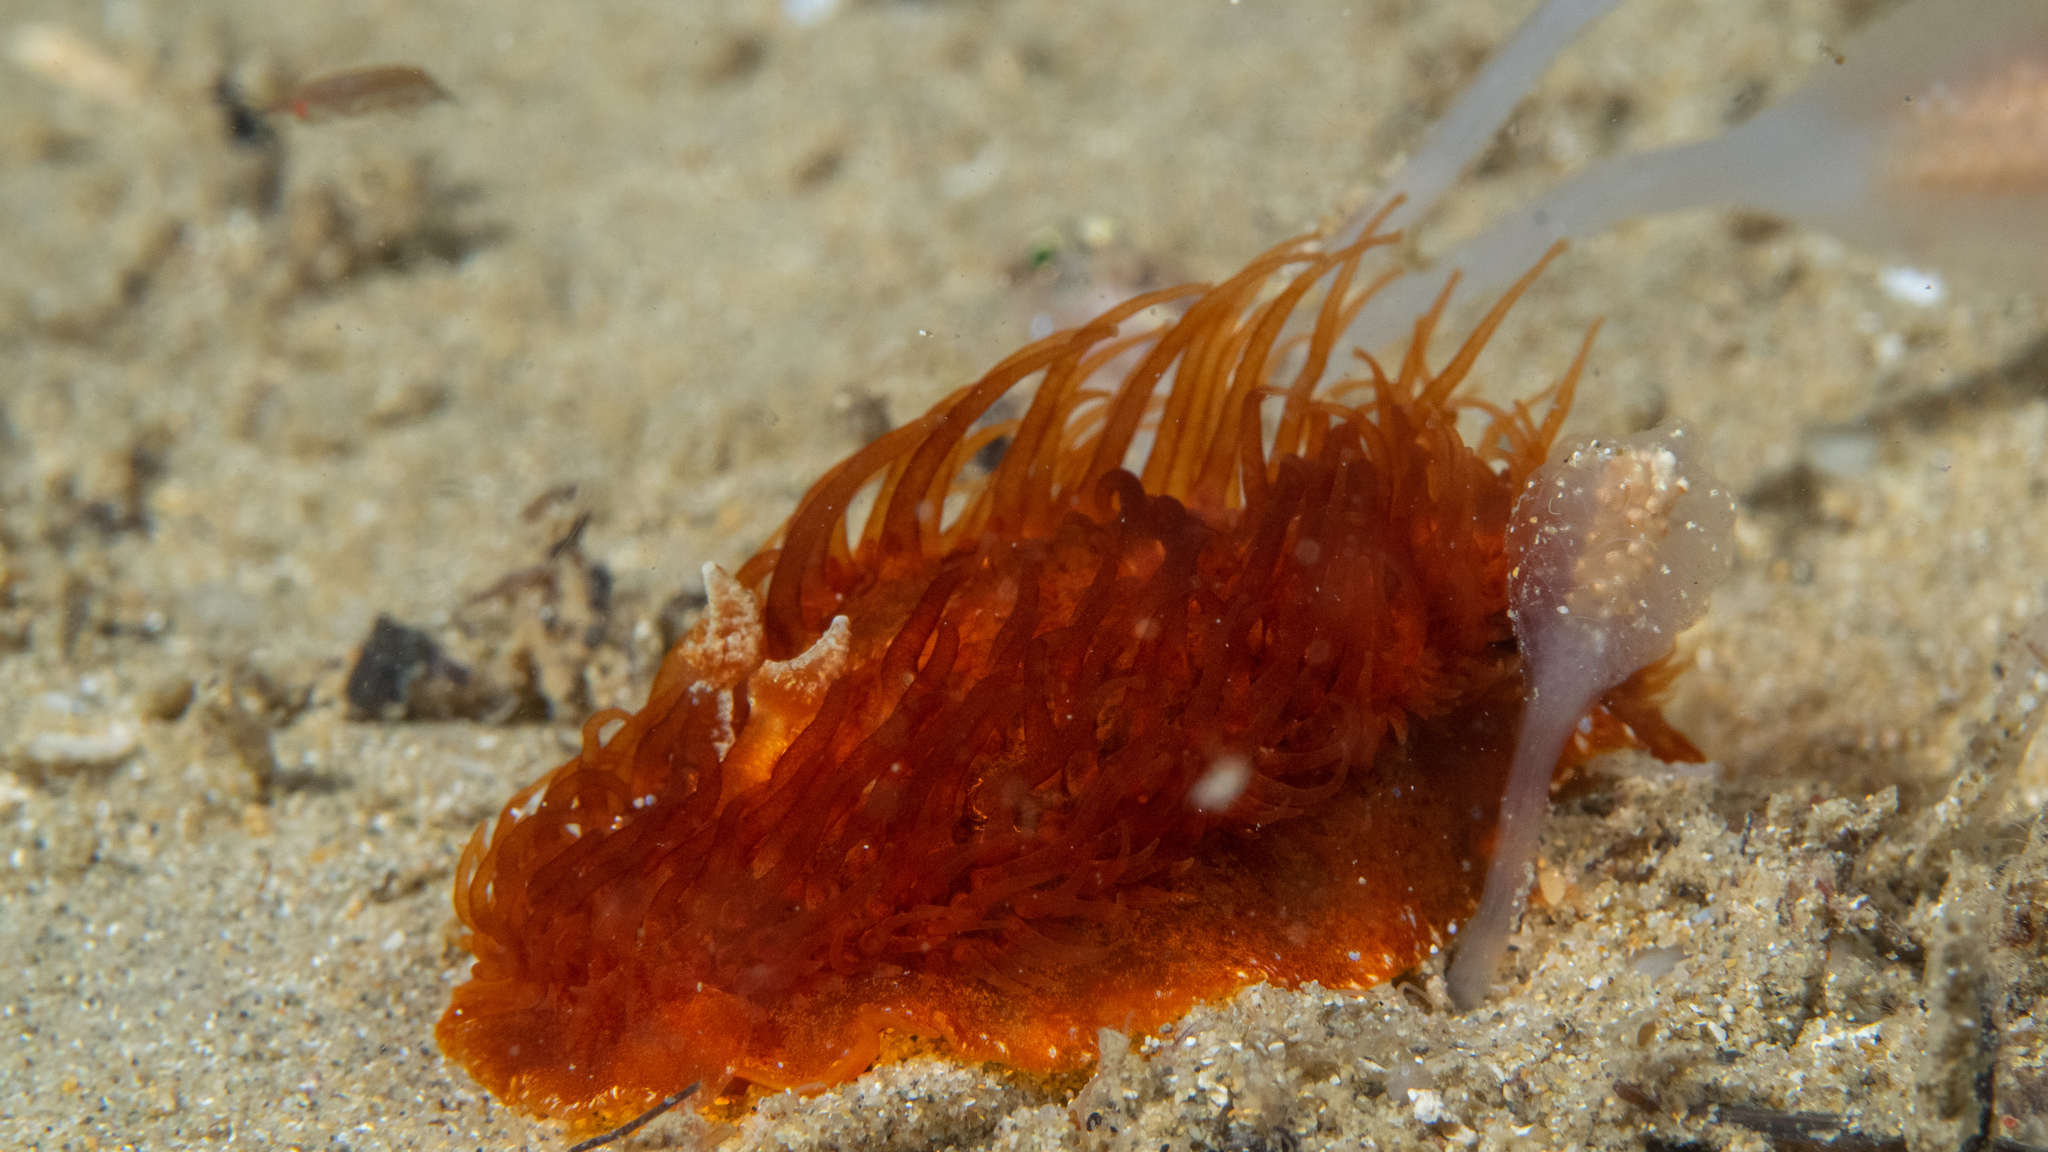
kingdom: Animalia
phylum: Mollusca
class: Gastropoda
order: Nudibranchia
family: Madrellidae
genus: Madrella
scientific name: Madrella ferruginosa
